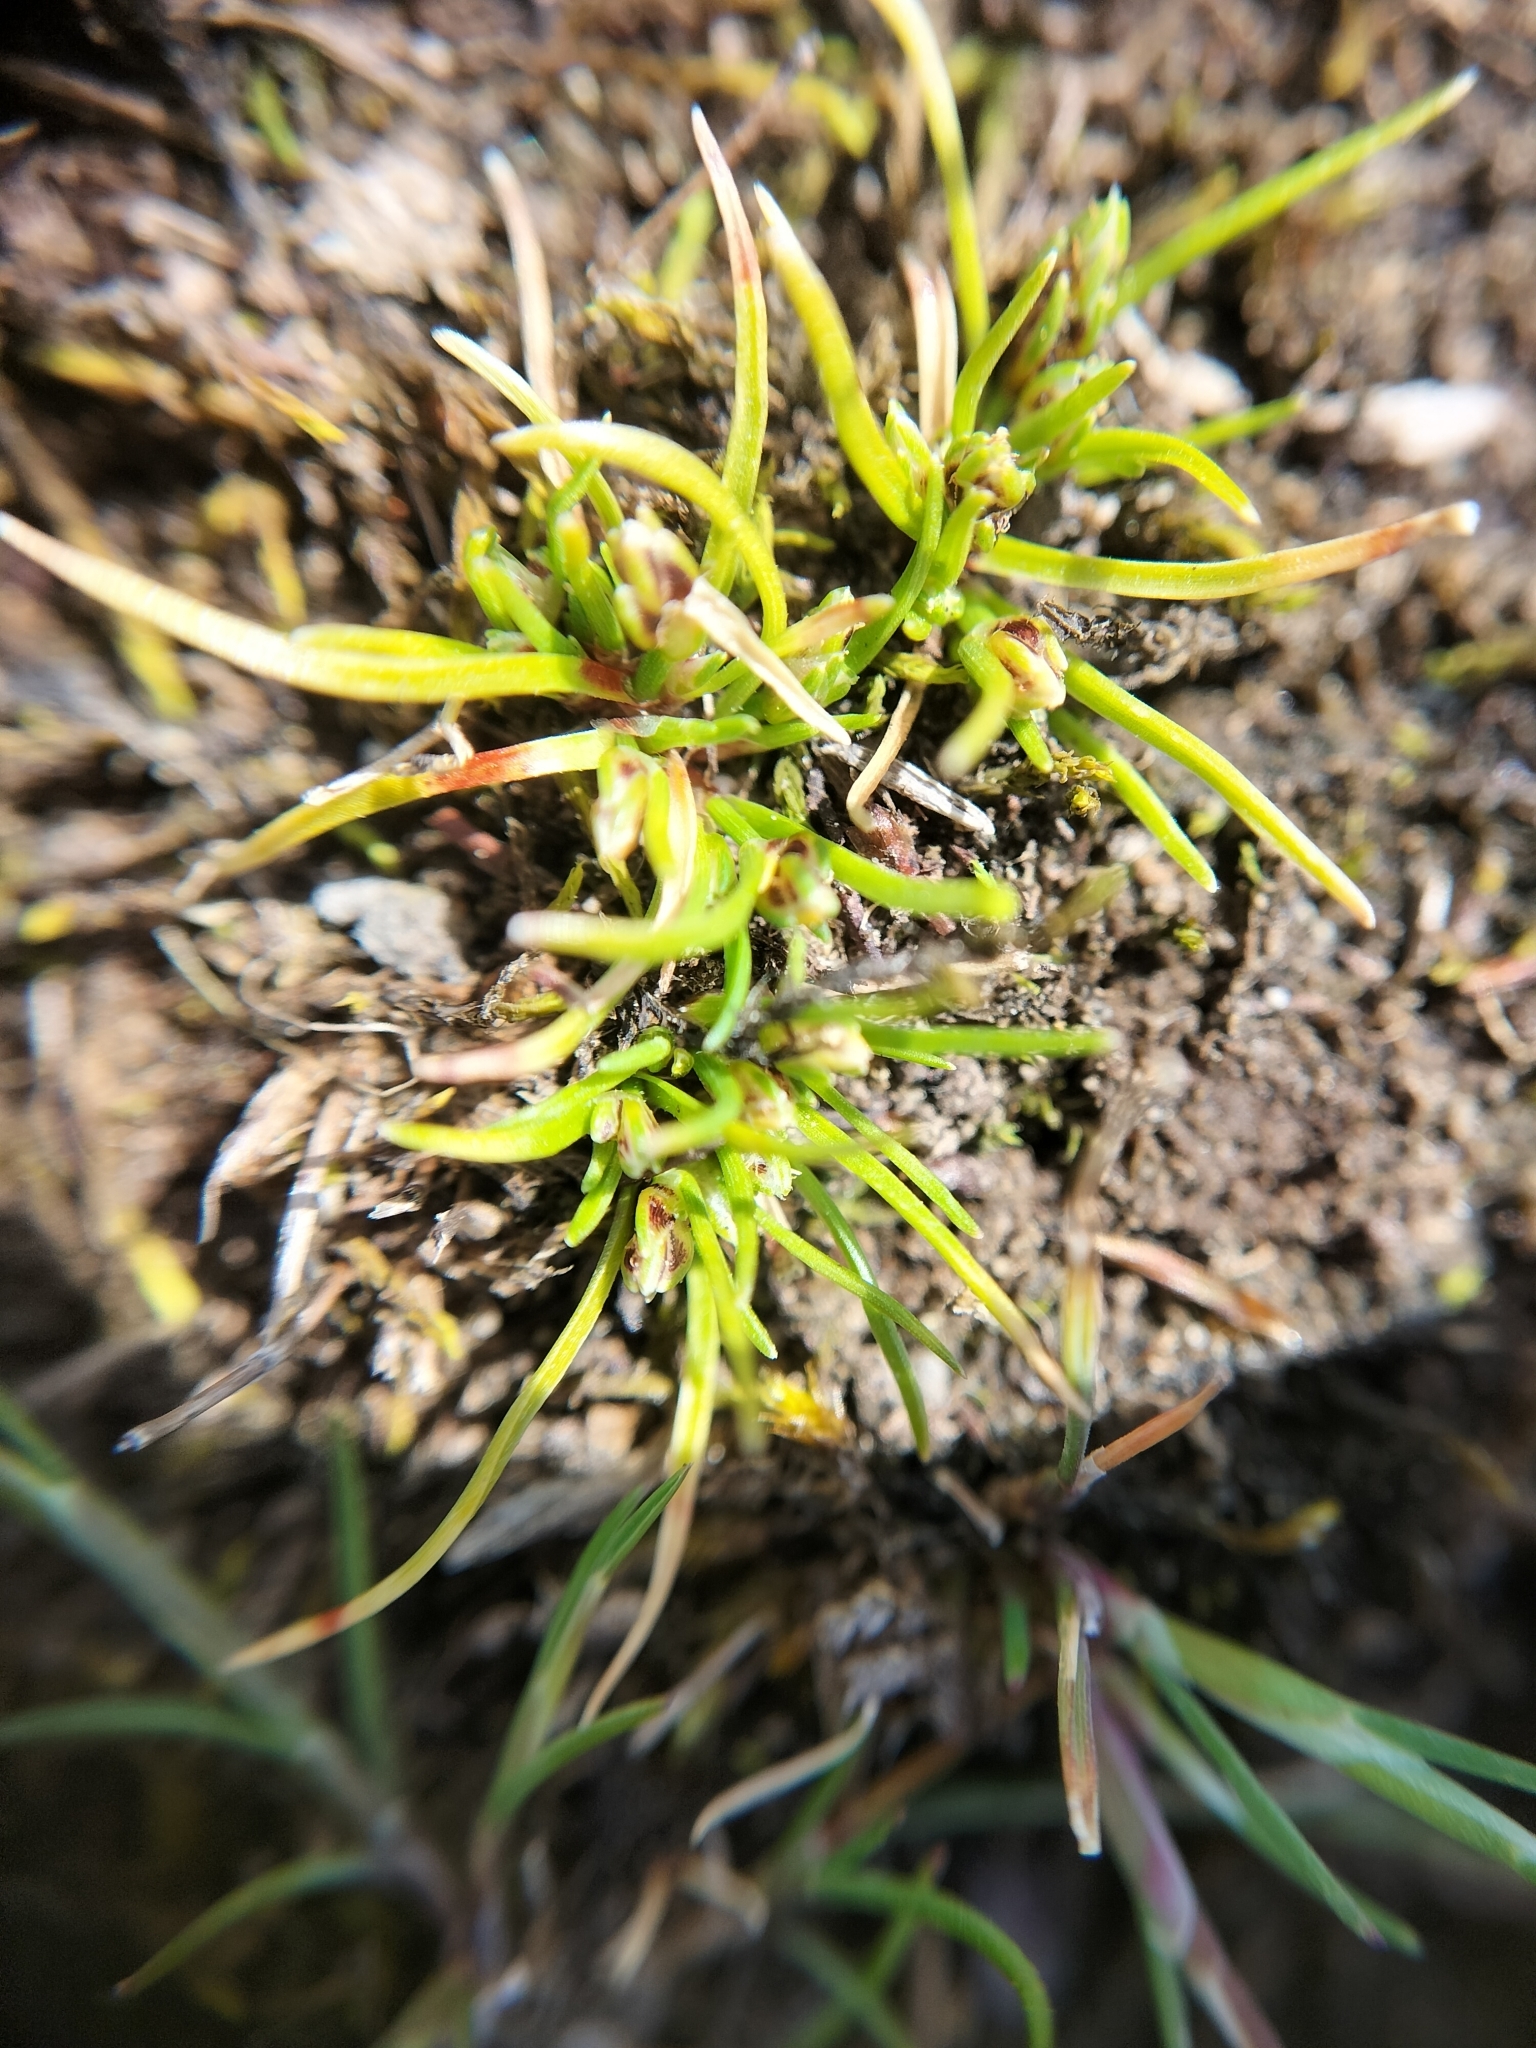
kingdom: Plantae
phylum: Tracheophyta
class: Liliopsida
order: Poales
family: Cyperaceae
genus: Isolepis
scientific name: Isolepis marginata
